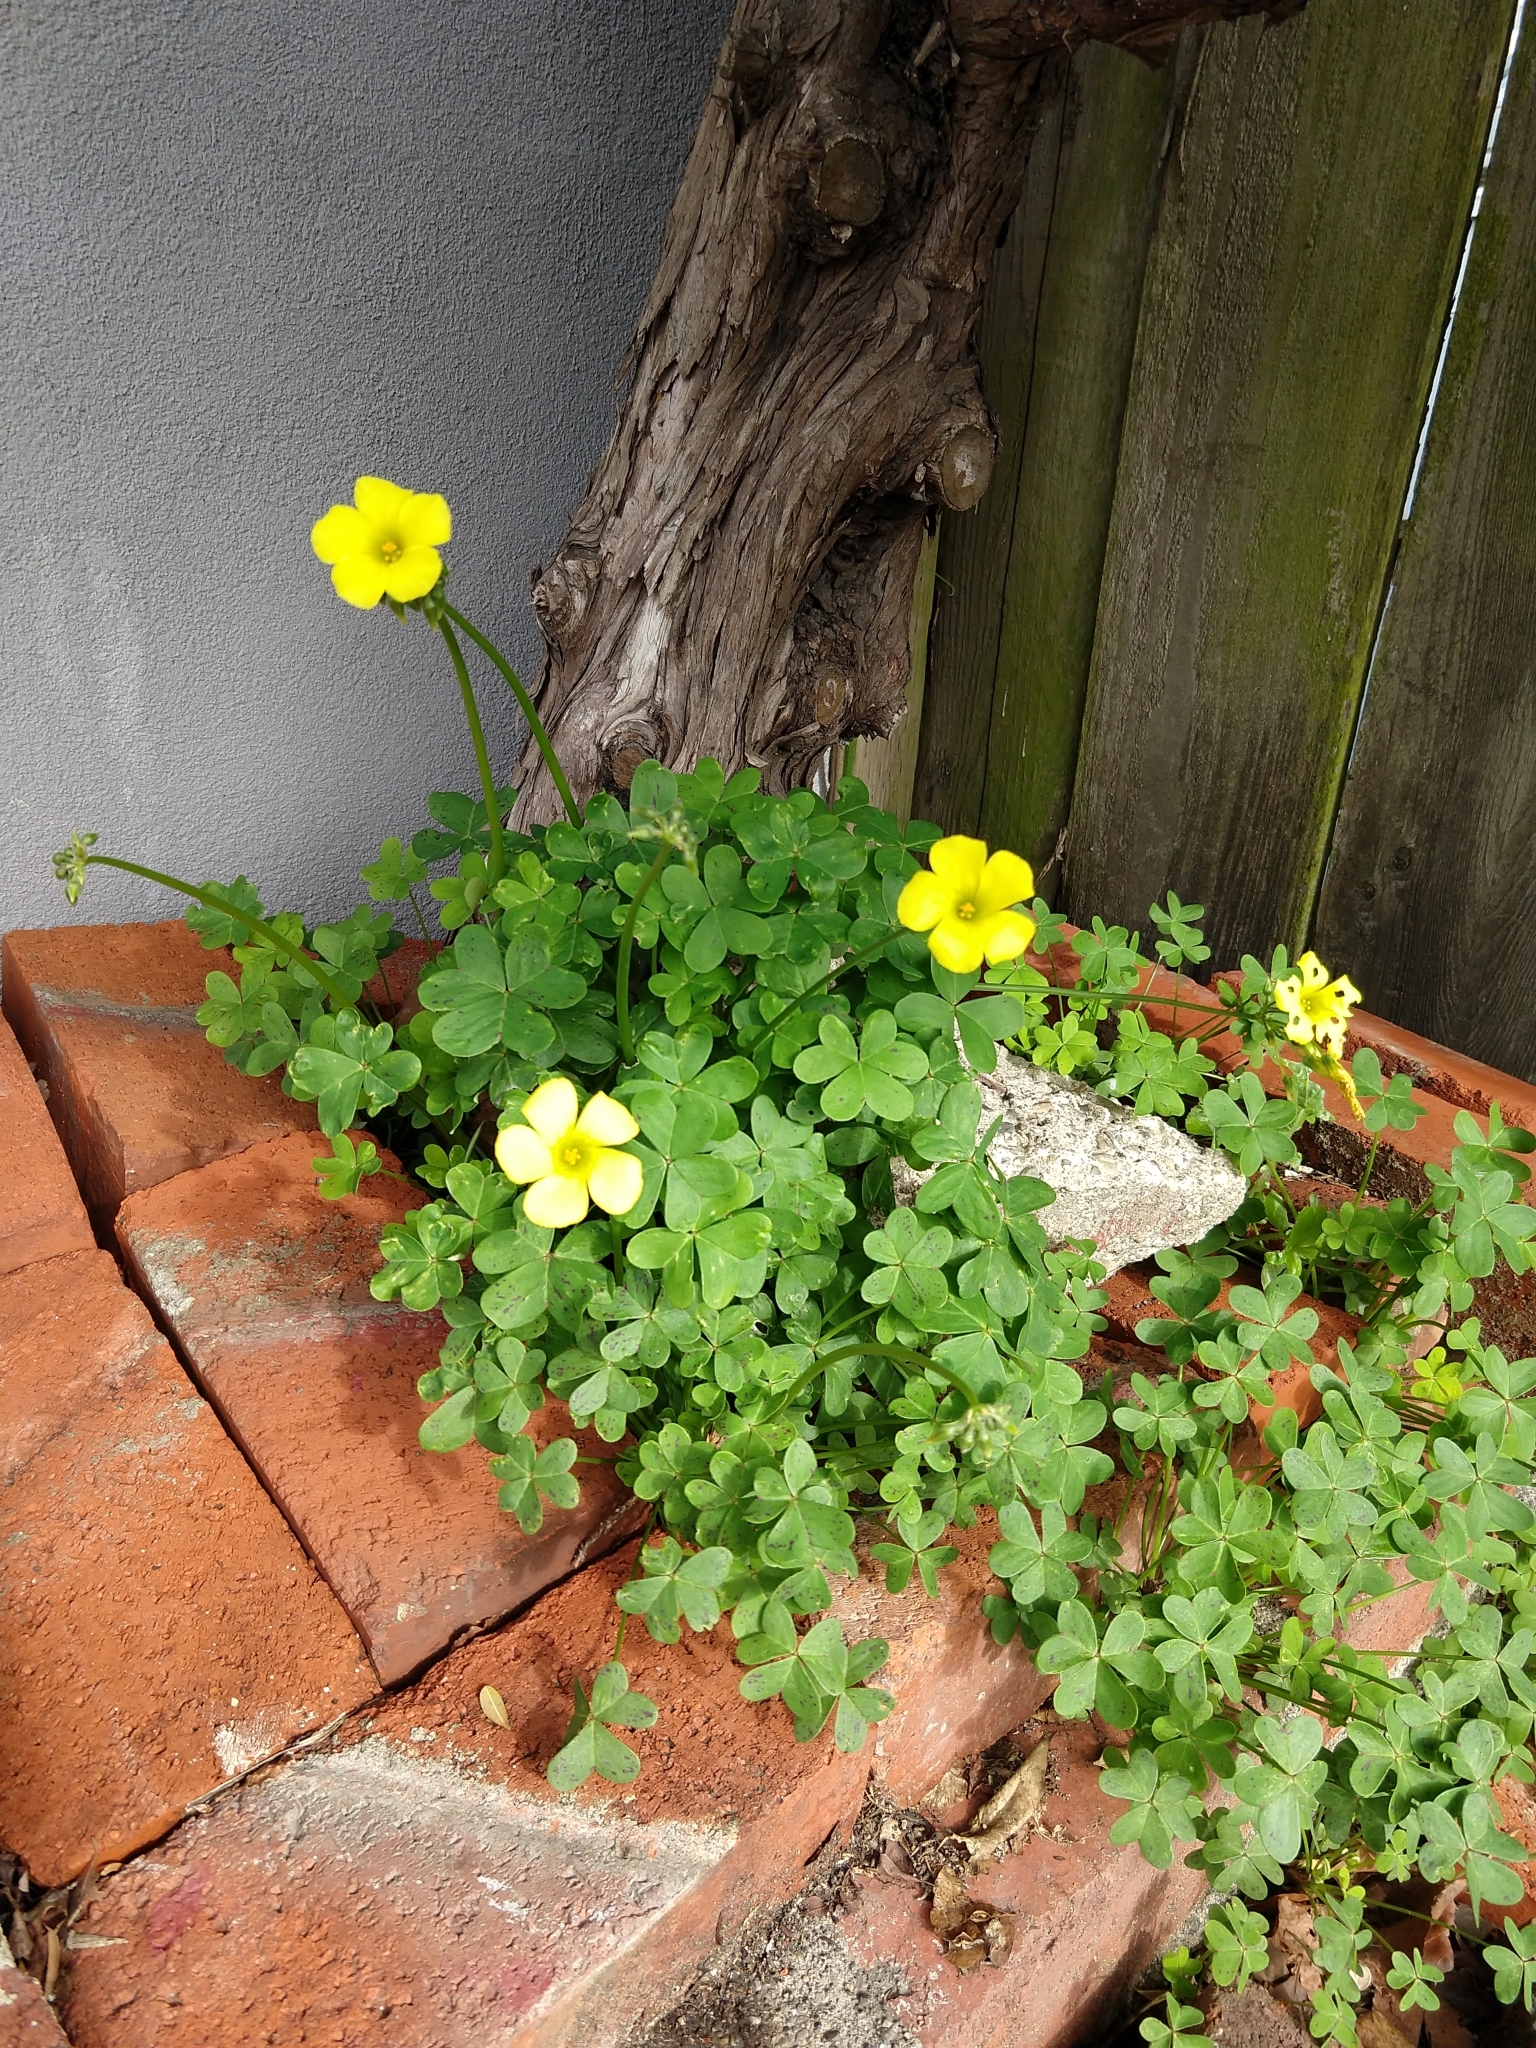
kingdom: Plantae
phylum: Tracheophyta
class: Magnoliopsida
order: Oxalidales
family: Oxalidaceae
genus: Oxalis
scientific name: Oxalis pes-caprae
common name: Bermuda-buttercup
